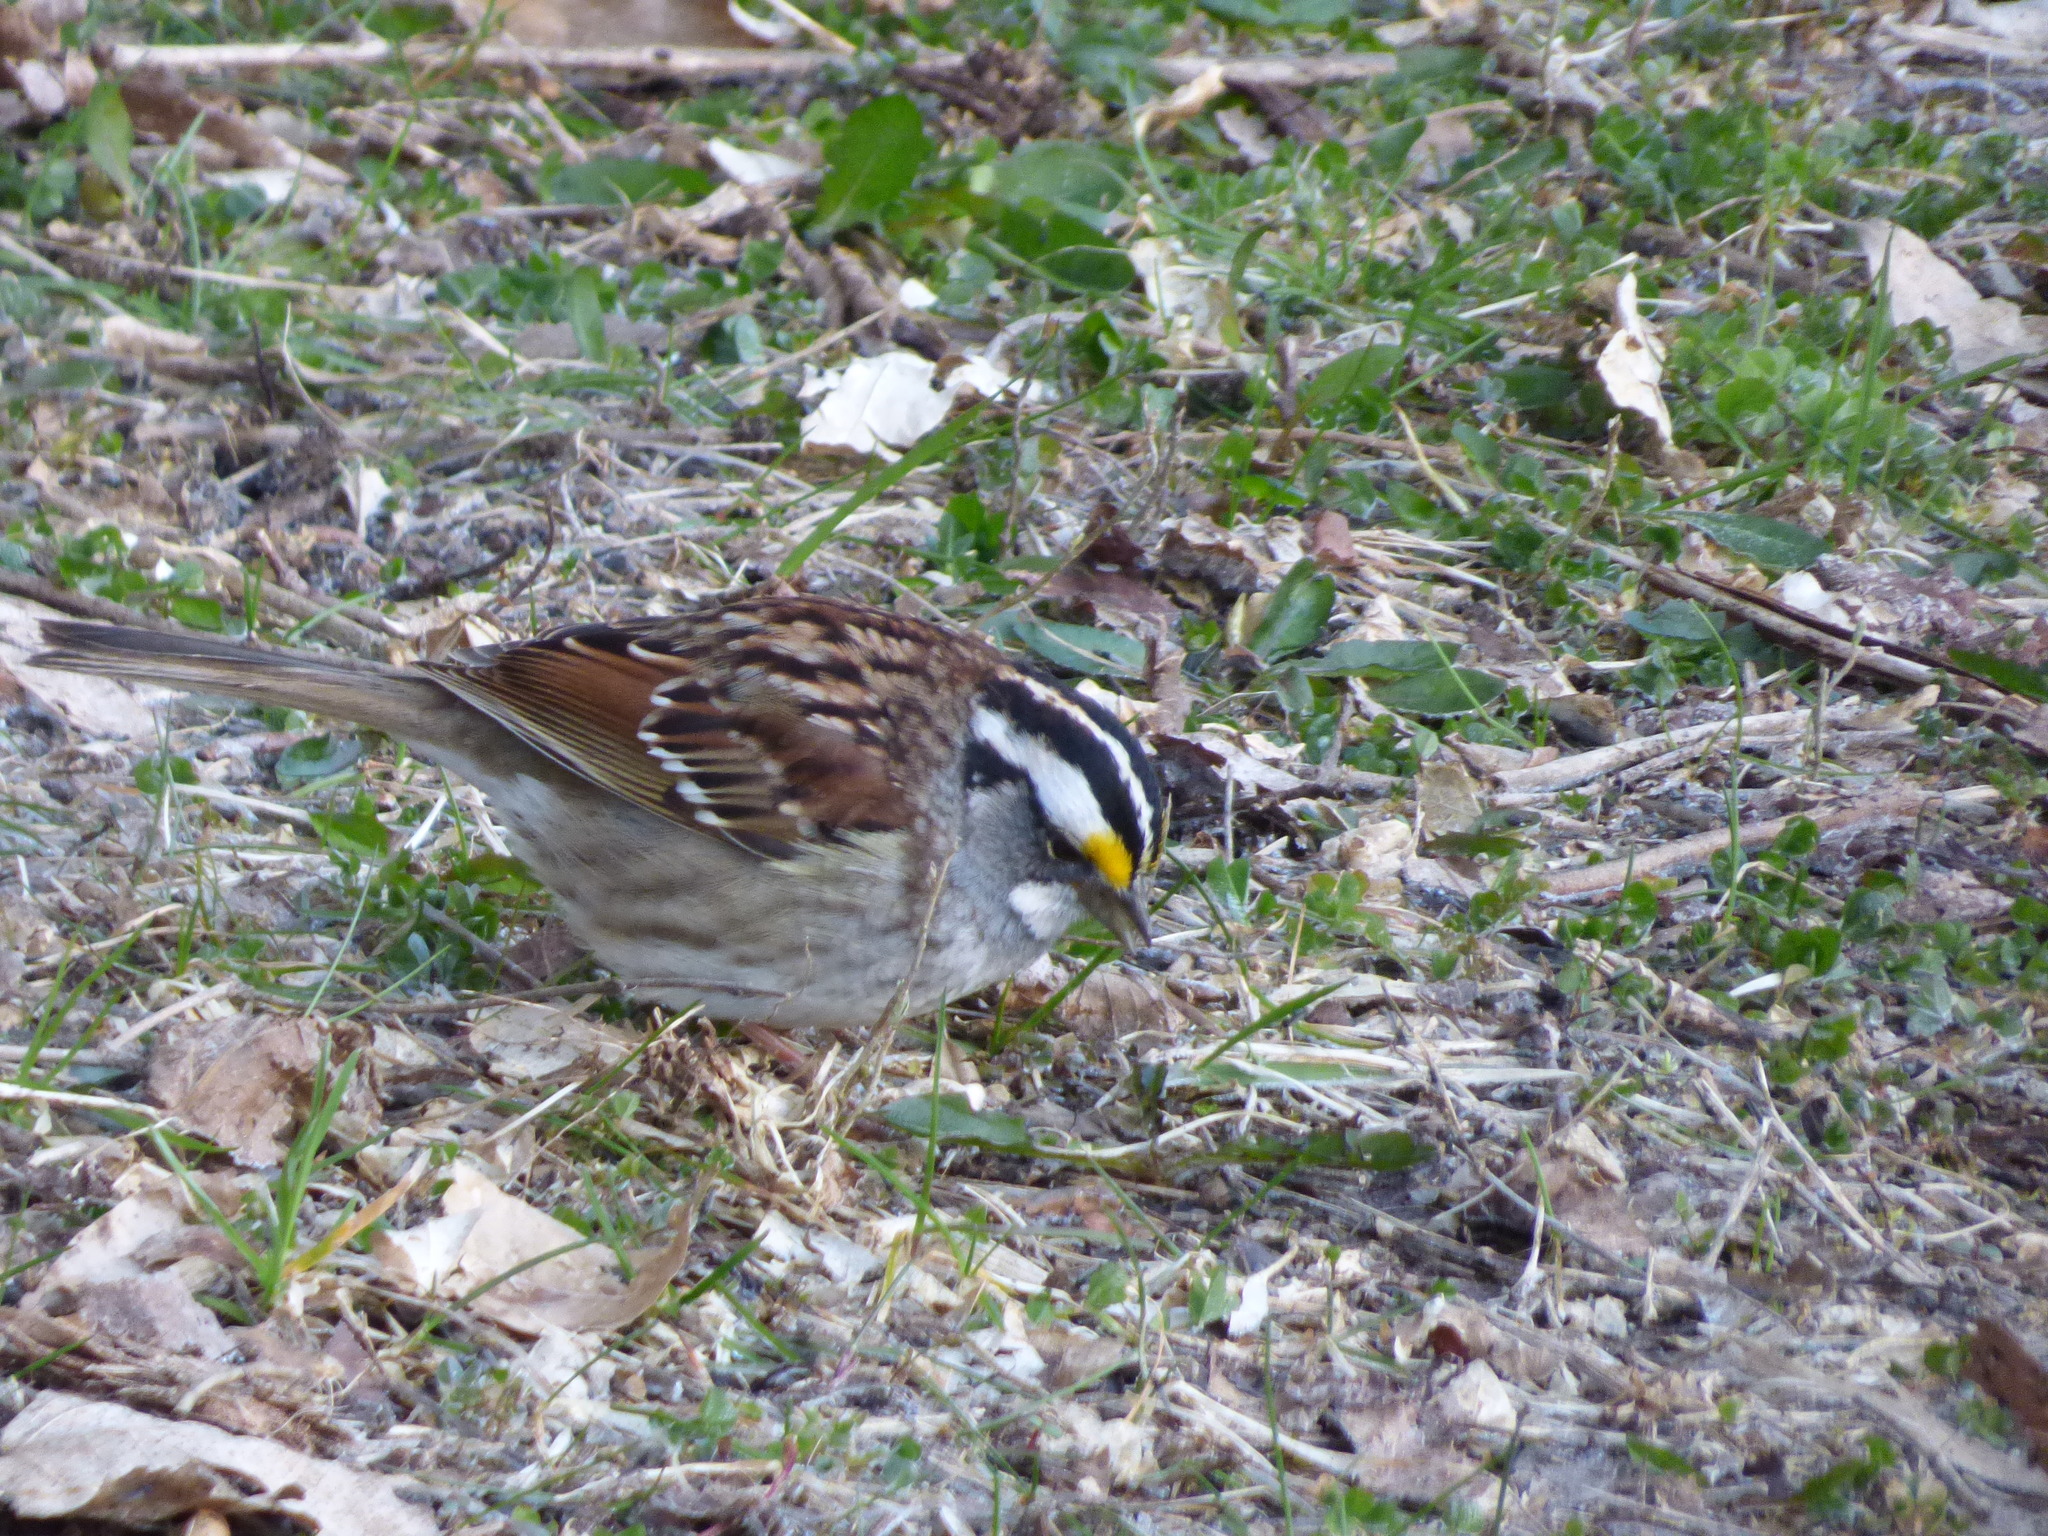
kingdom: Animalia
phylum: Chordata
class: Aves
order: Passeriformes
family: Passerellidae
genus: Zonotrichia
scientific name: Zonotrichia albicollis
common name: White-throated sparrow
